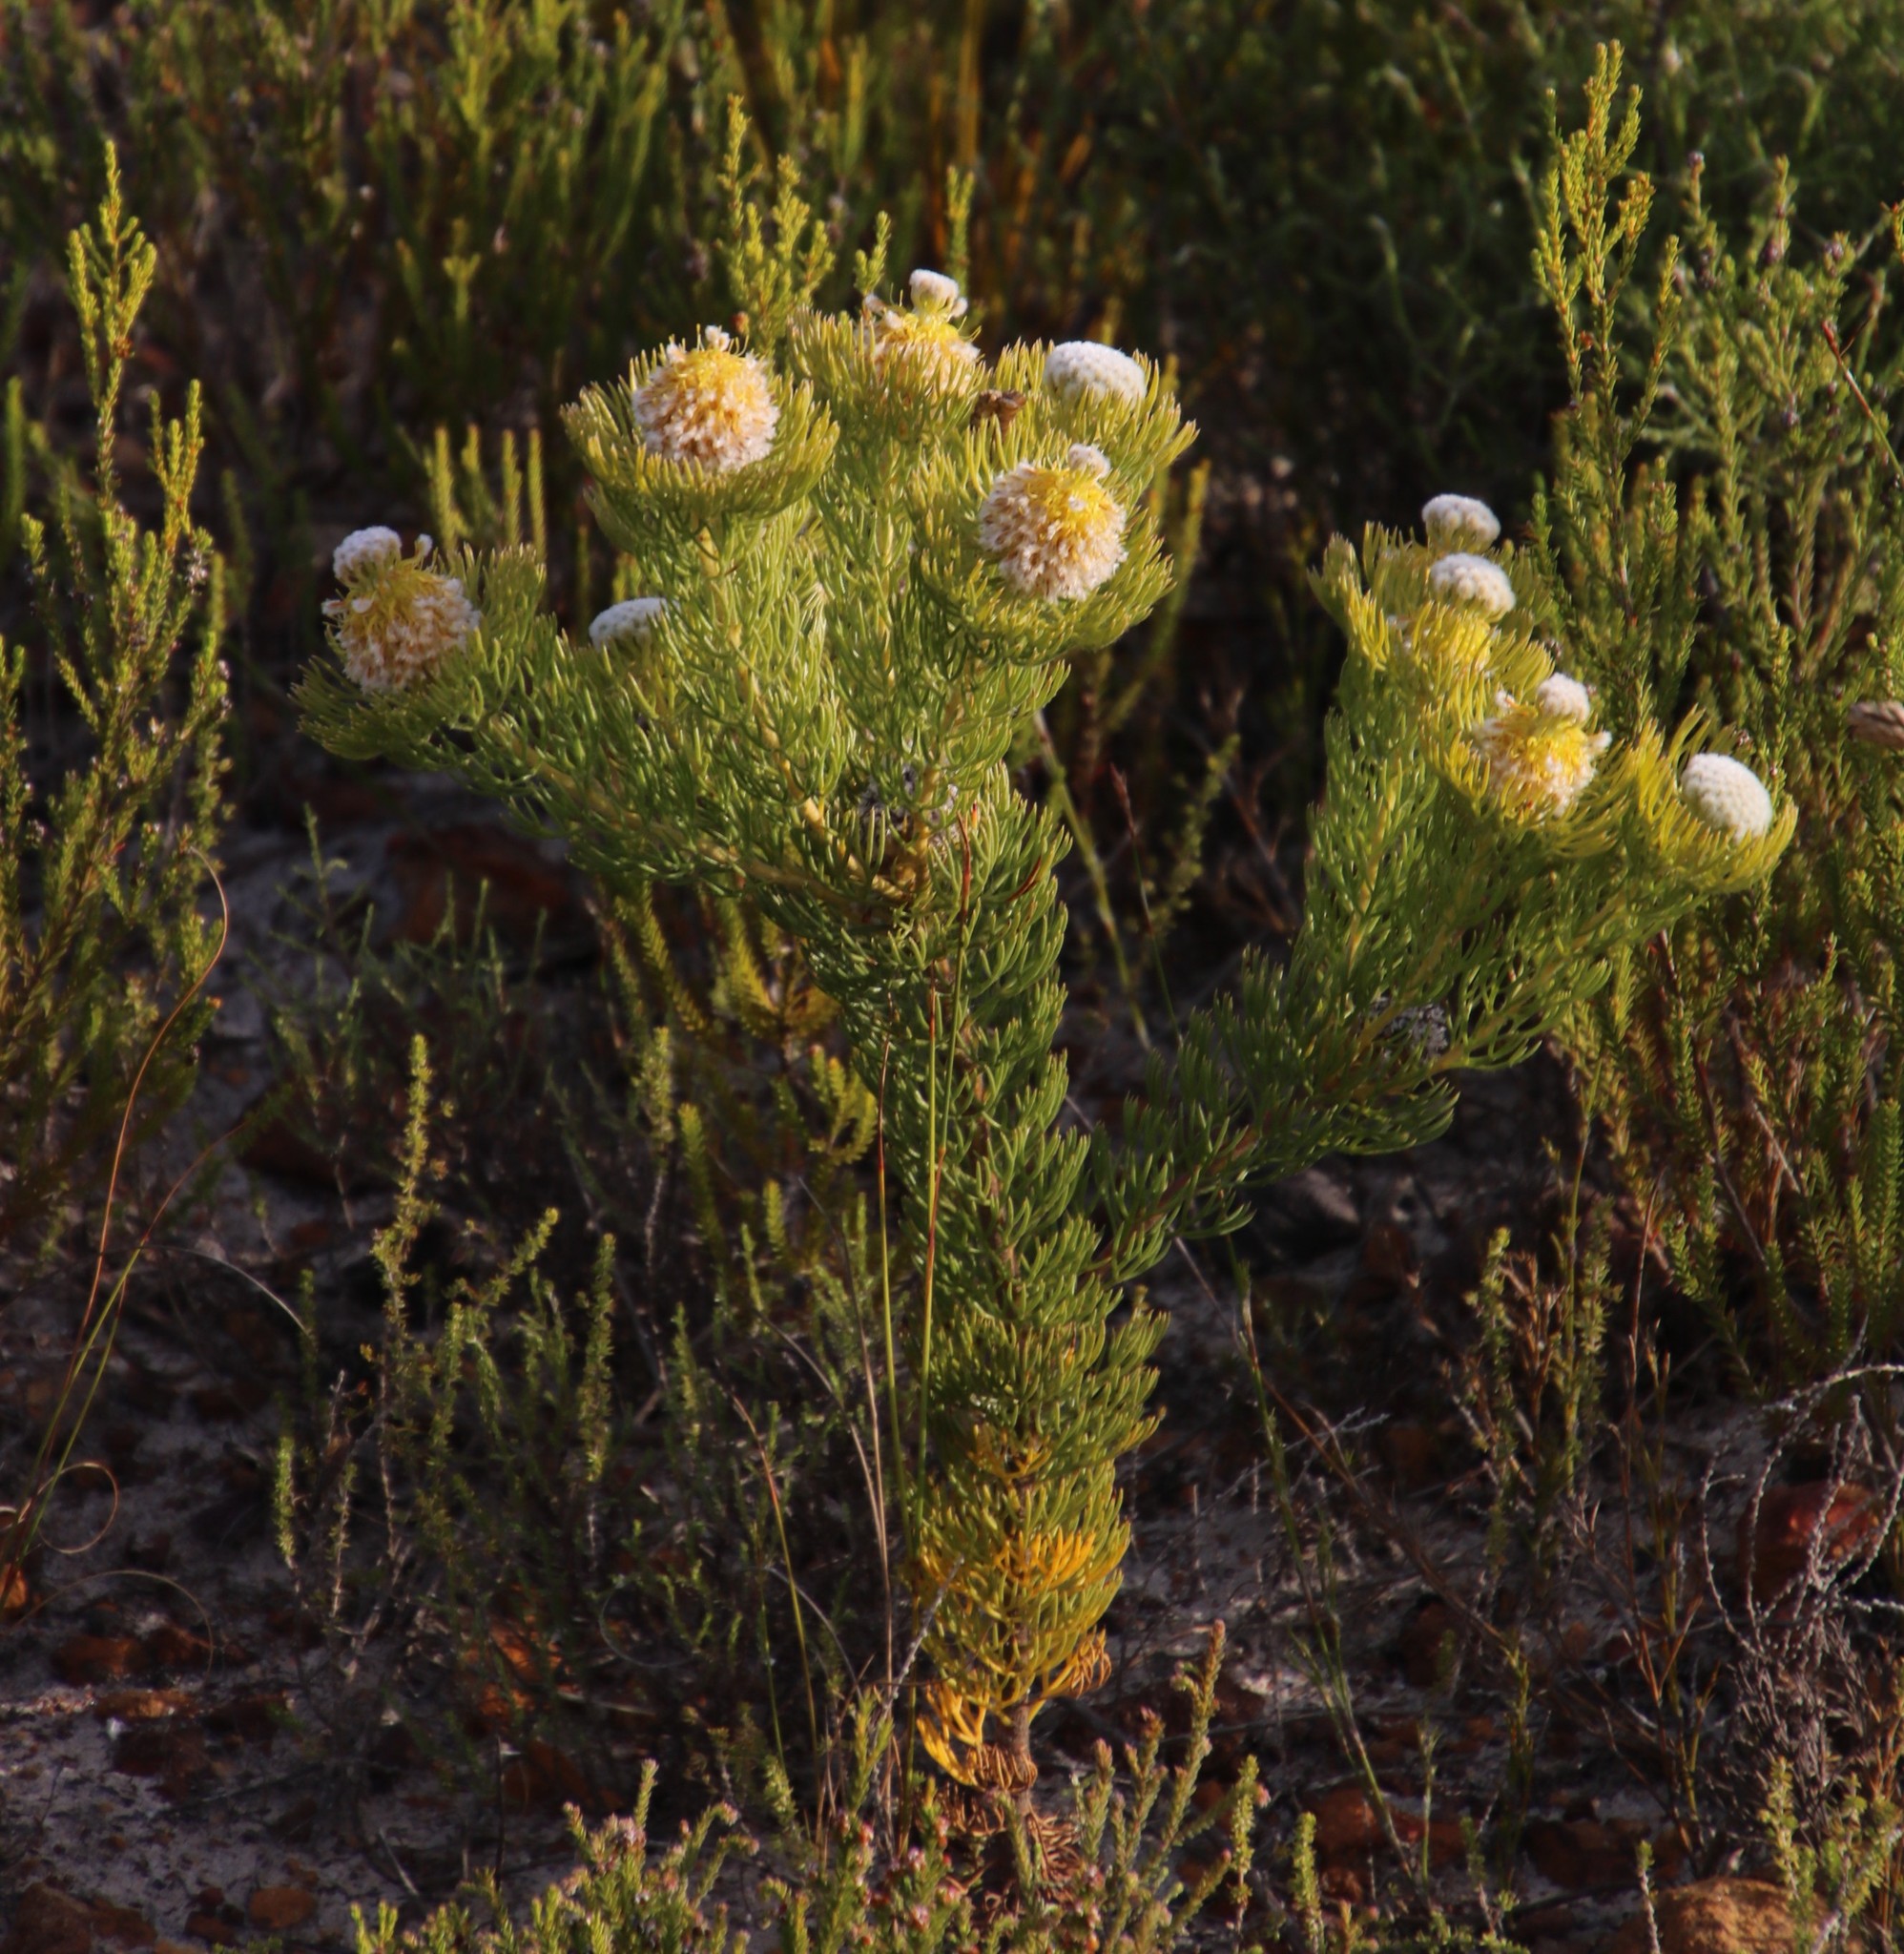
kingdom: Plantae
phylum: Tracheophyta
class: Magnoliopsida
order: Proteales
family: Proteaceae
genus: Serruria
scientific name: Serruria villosa
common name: Golden spiderhead
